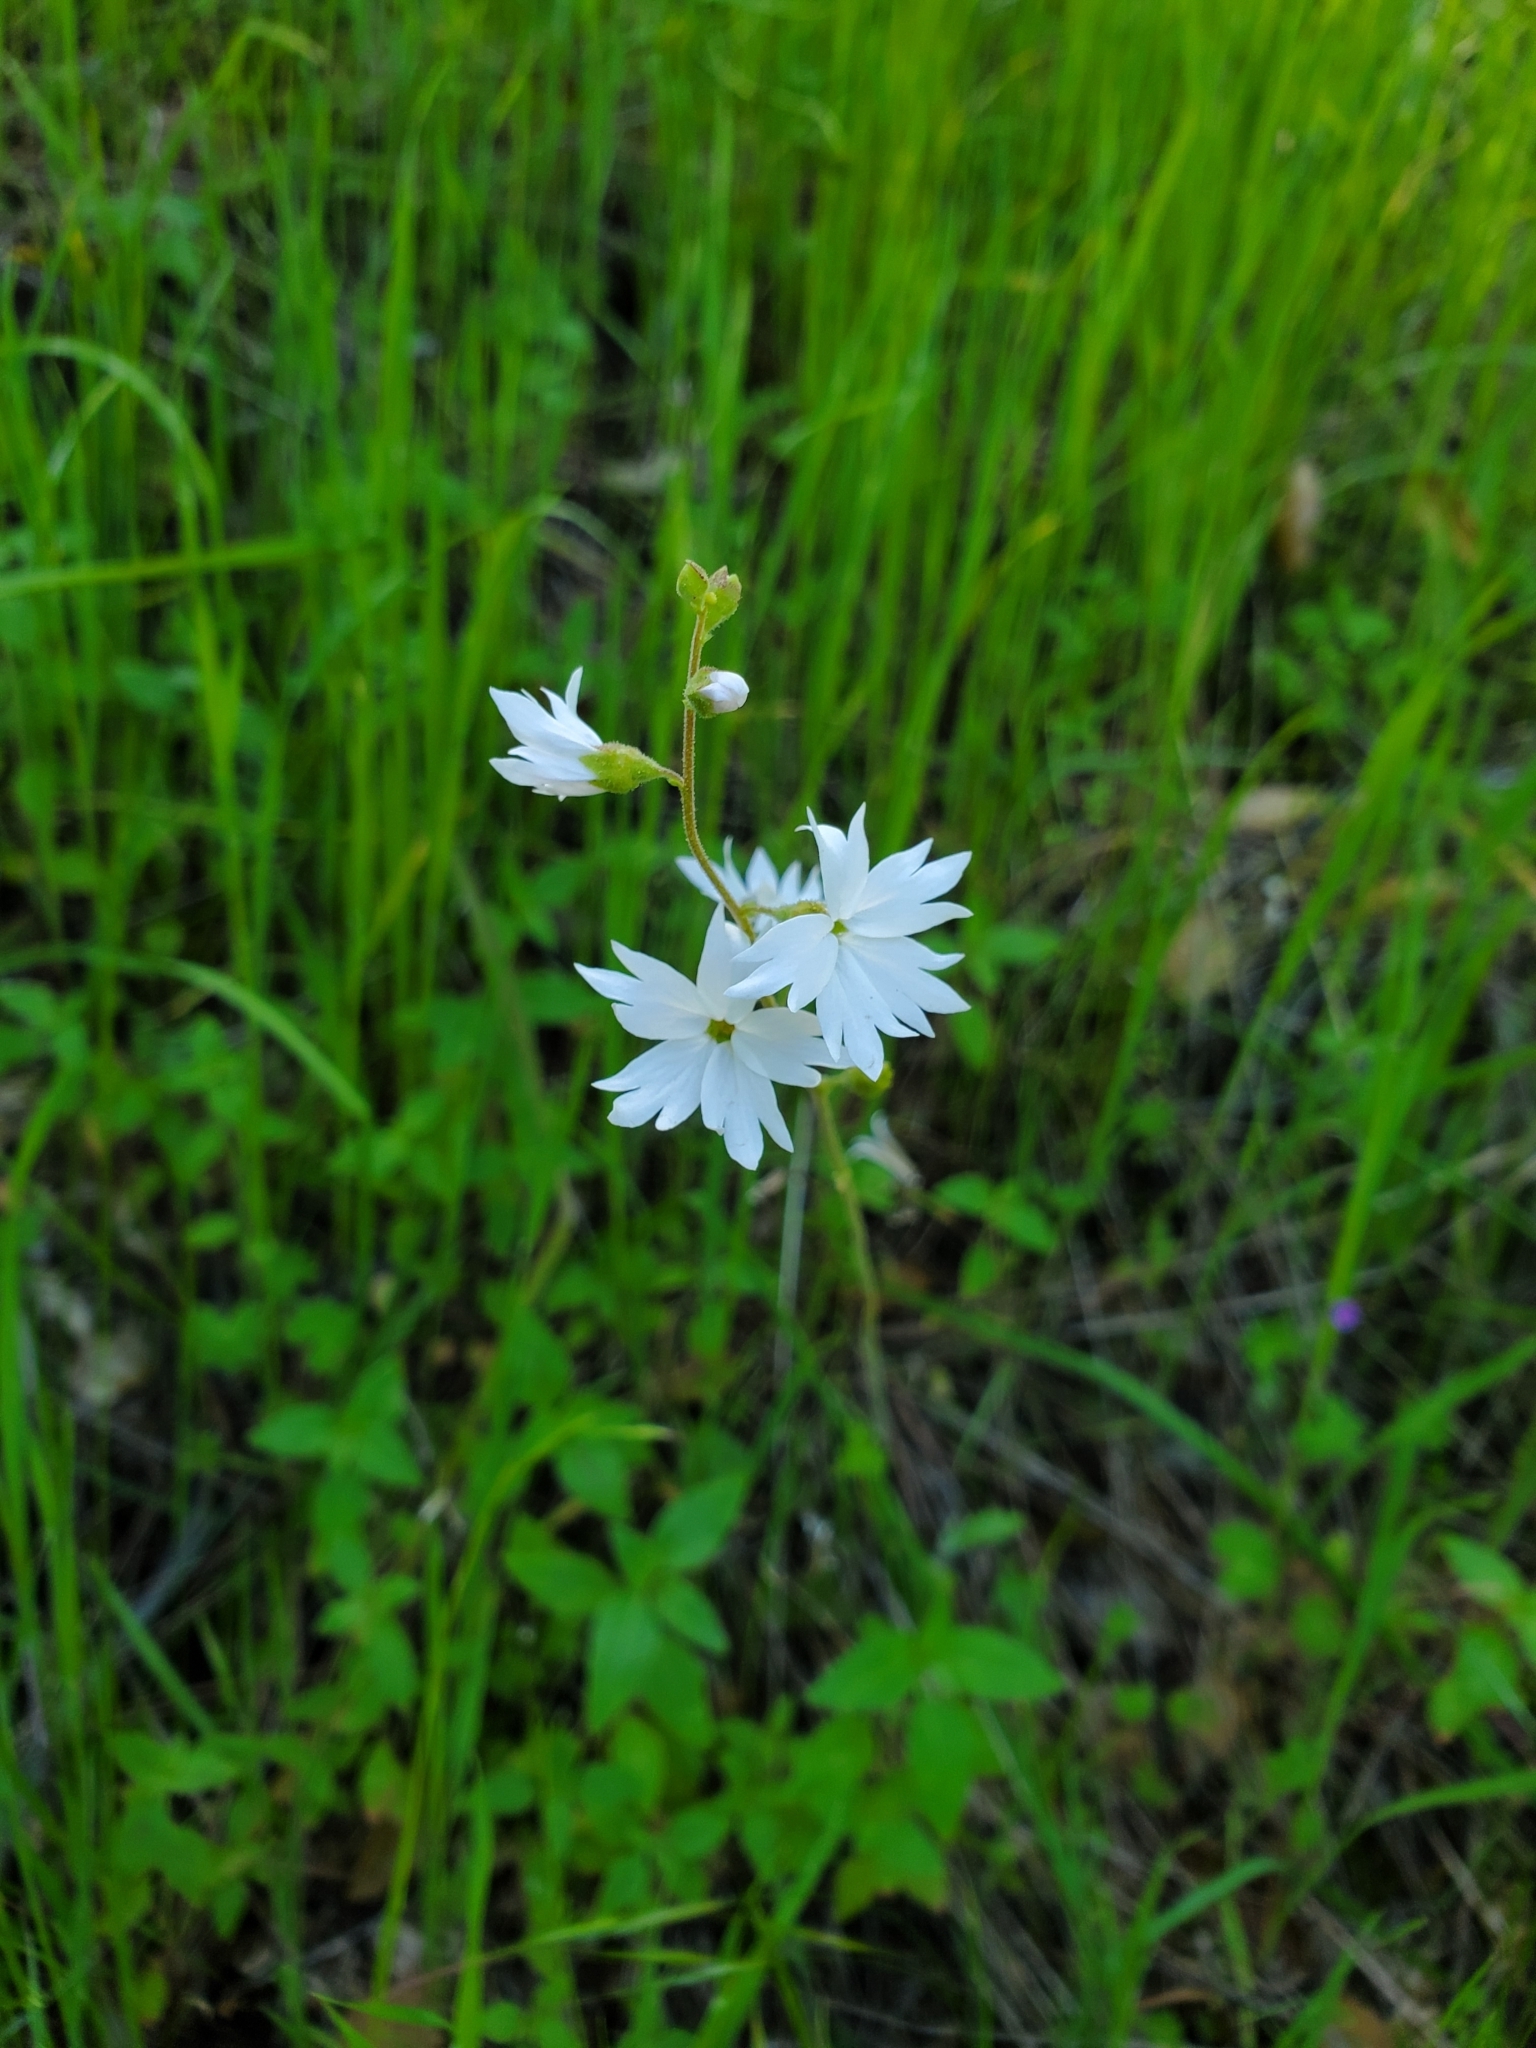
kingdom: Plantae
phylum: Tracheophyta
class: Magnoliopsida
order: Saxifragales
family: Saxifragaceae
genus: Lithophragma
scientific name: Lithophragma affine
